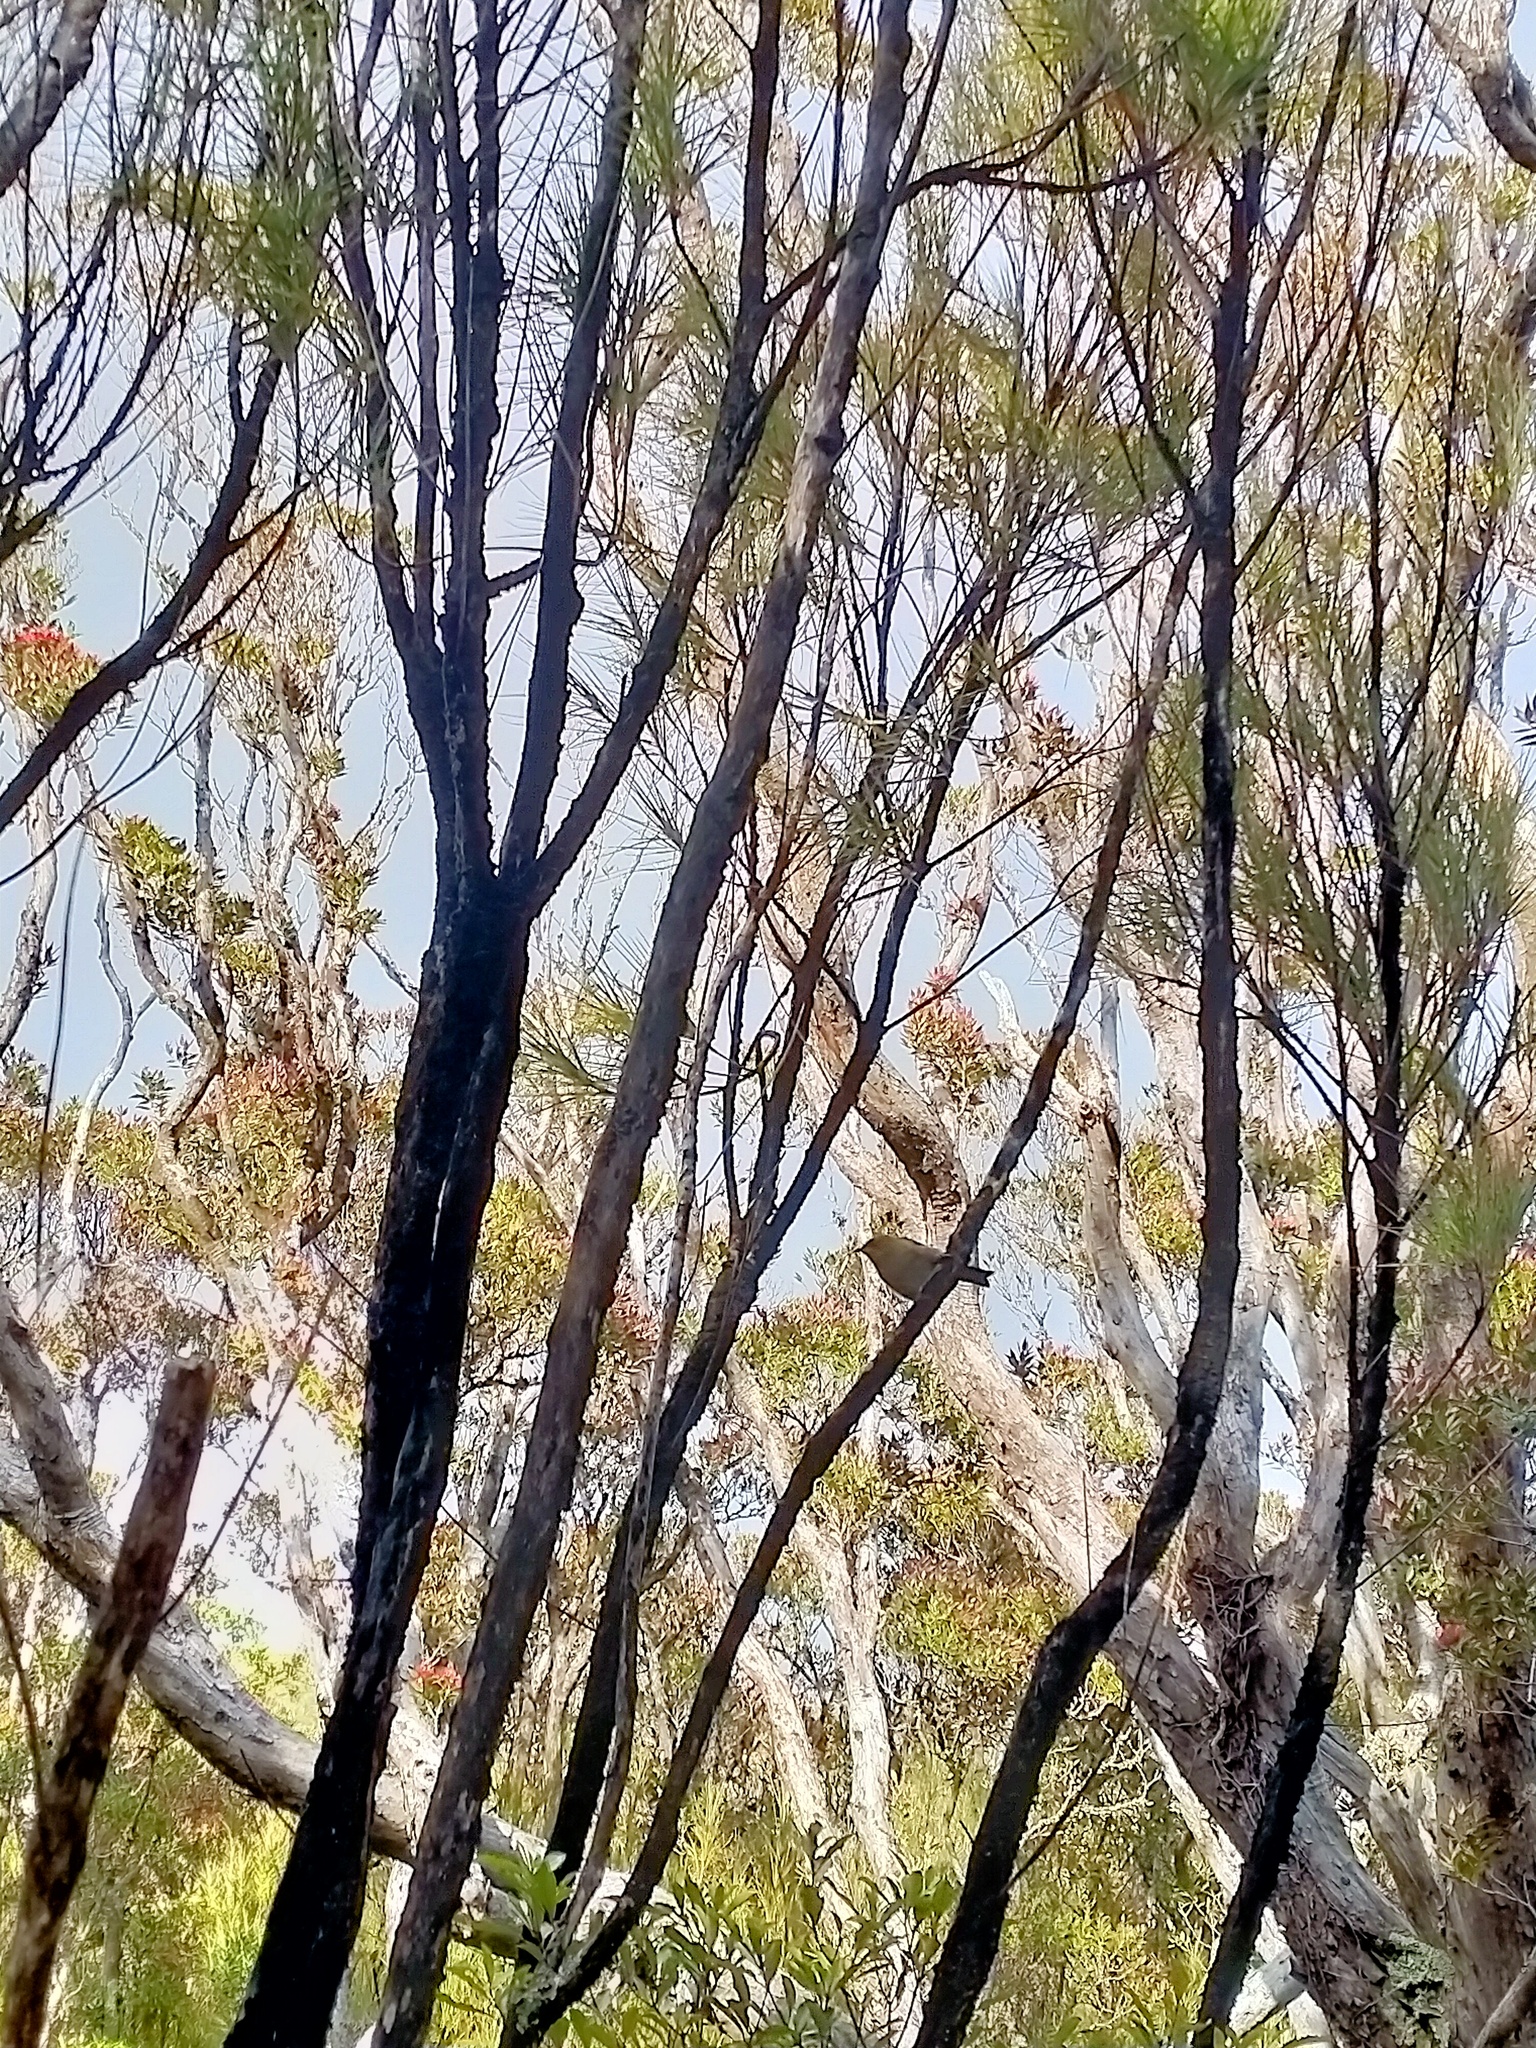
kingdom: Animalia
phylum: Chordata
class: Aves
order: Passeriformes
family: Meliphagidae
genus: Anthornis
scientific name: Anthornis melanura
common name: New zealand bellbird
